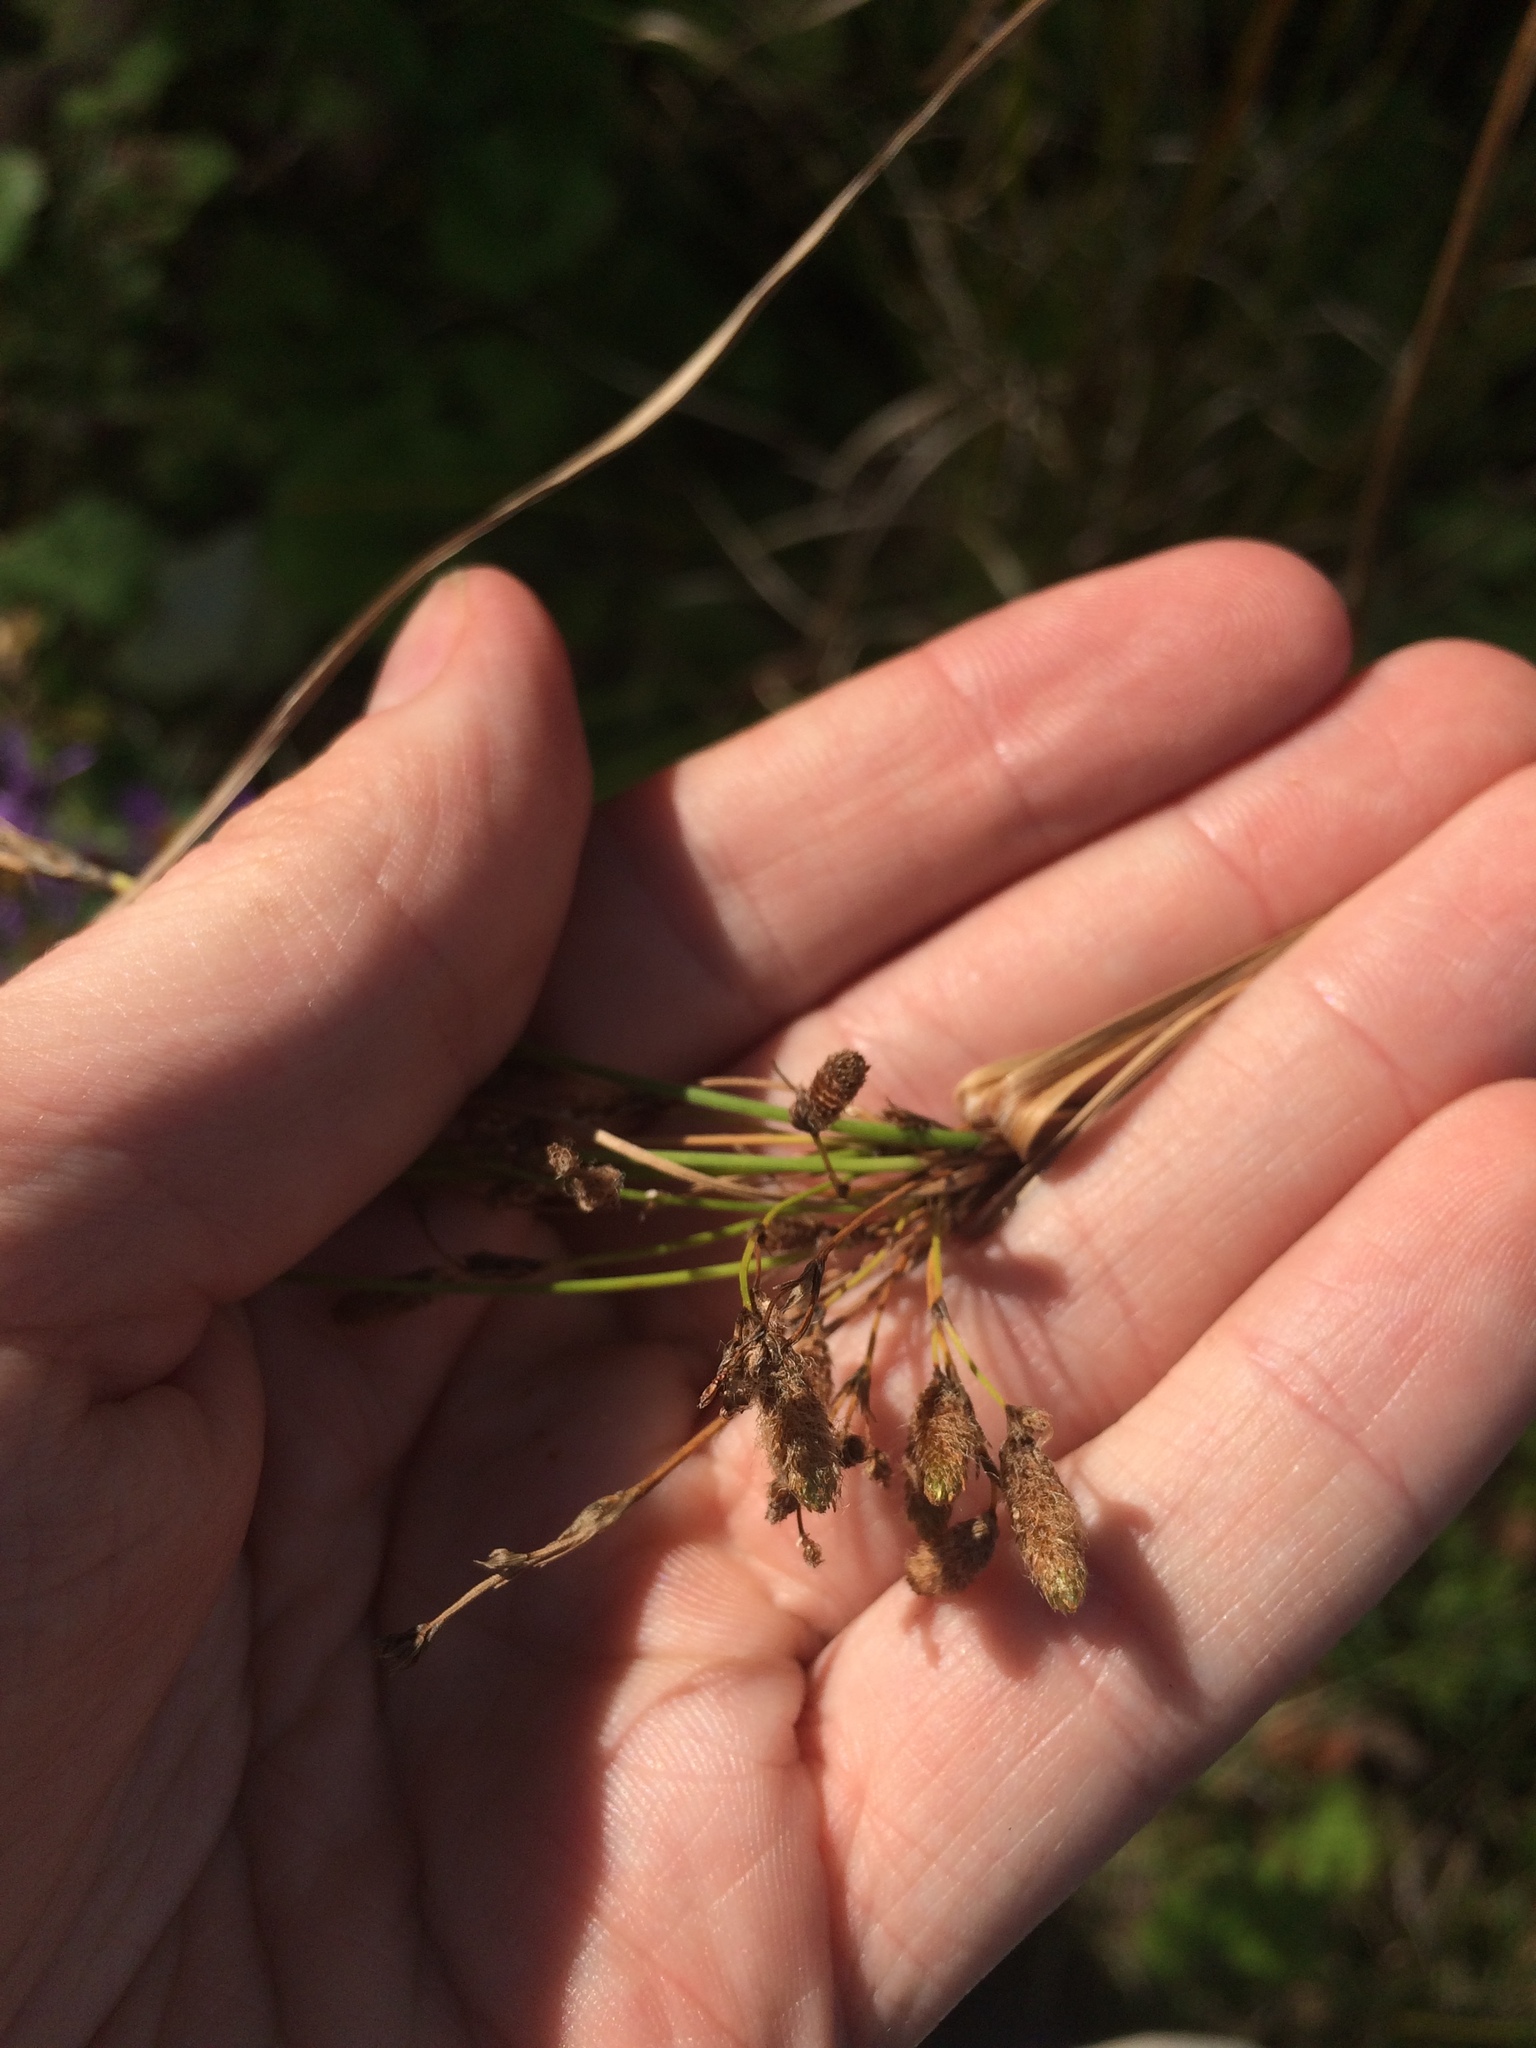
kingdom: Plantae
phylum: Tracheophyta
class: Liliopsida
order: Poales
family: Cyperaceae
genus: Scirpus
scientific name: Scirpus atrocinctus
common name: Black-girdled bulrush
